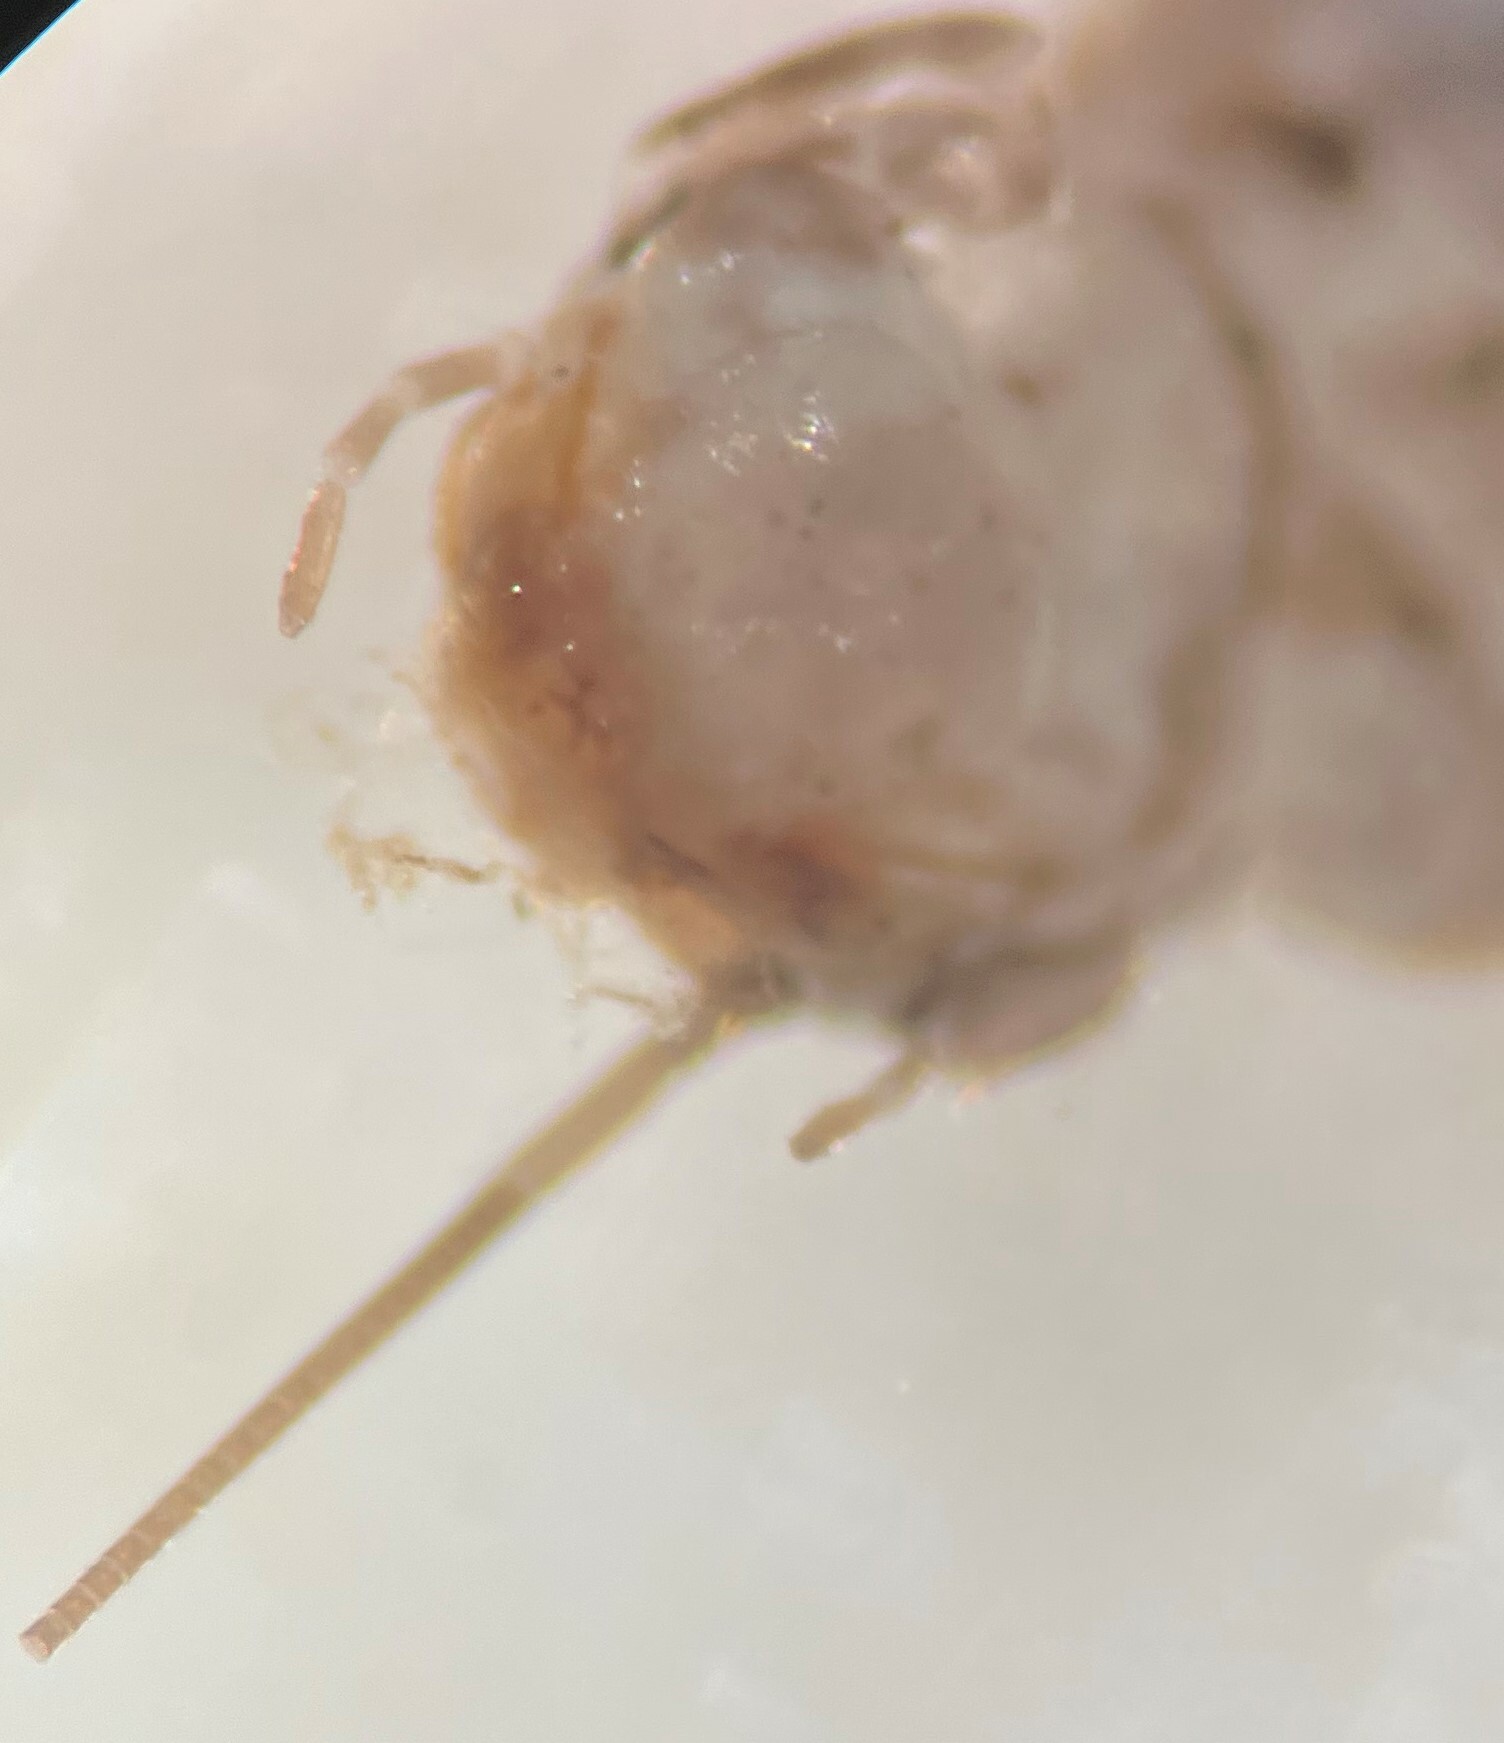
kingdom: Animalia
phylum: Arthropoda
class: Insecta
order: Coleoptera
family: Scirtidae
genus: Scirtes
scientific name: Scirtes
